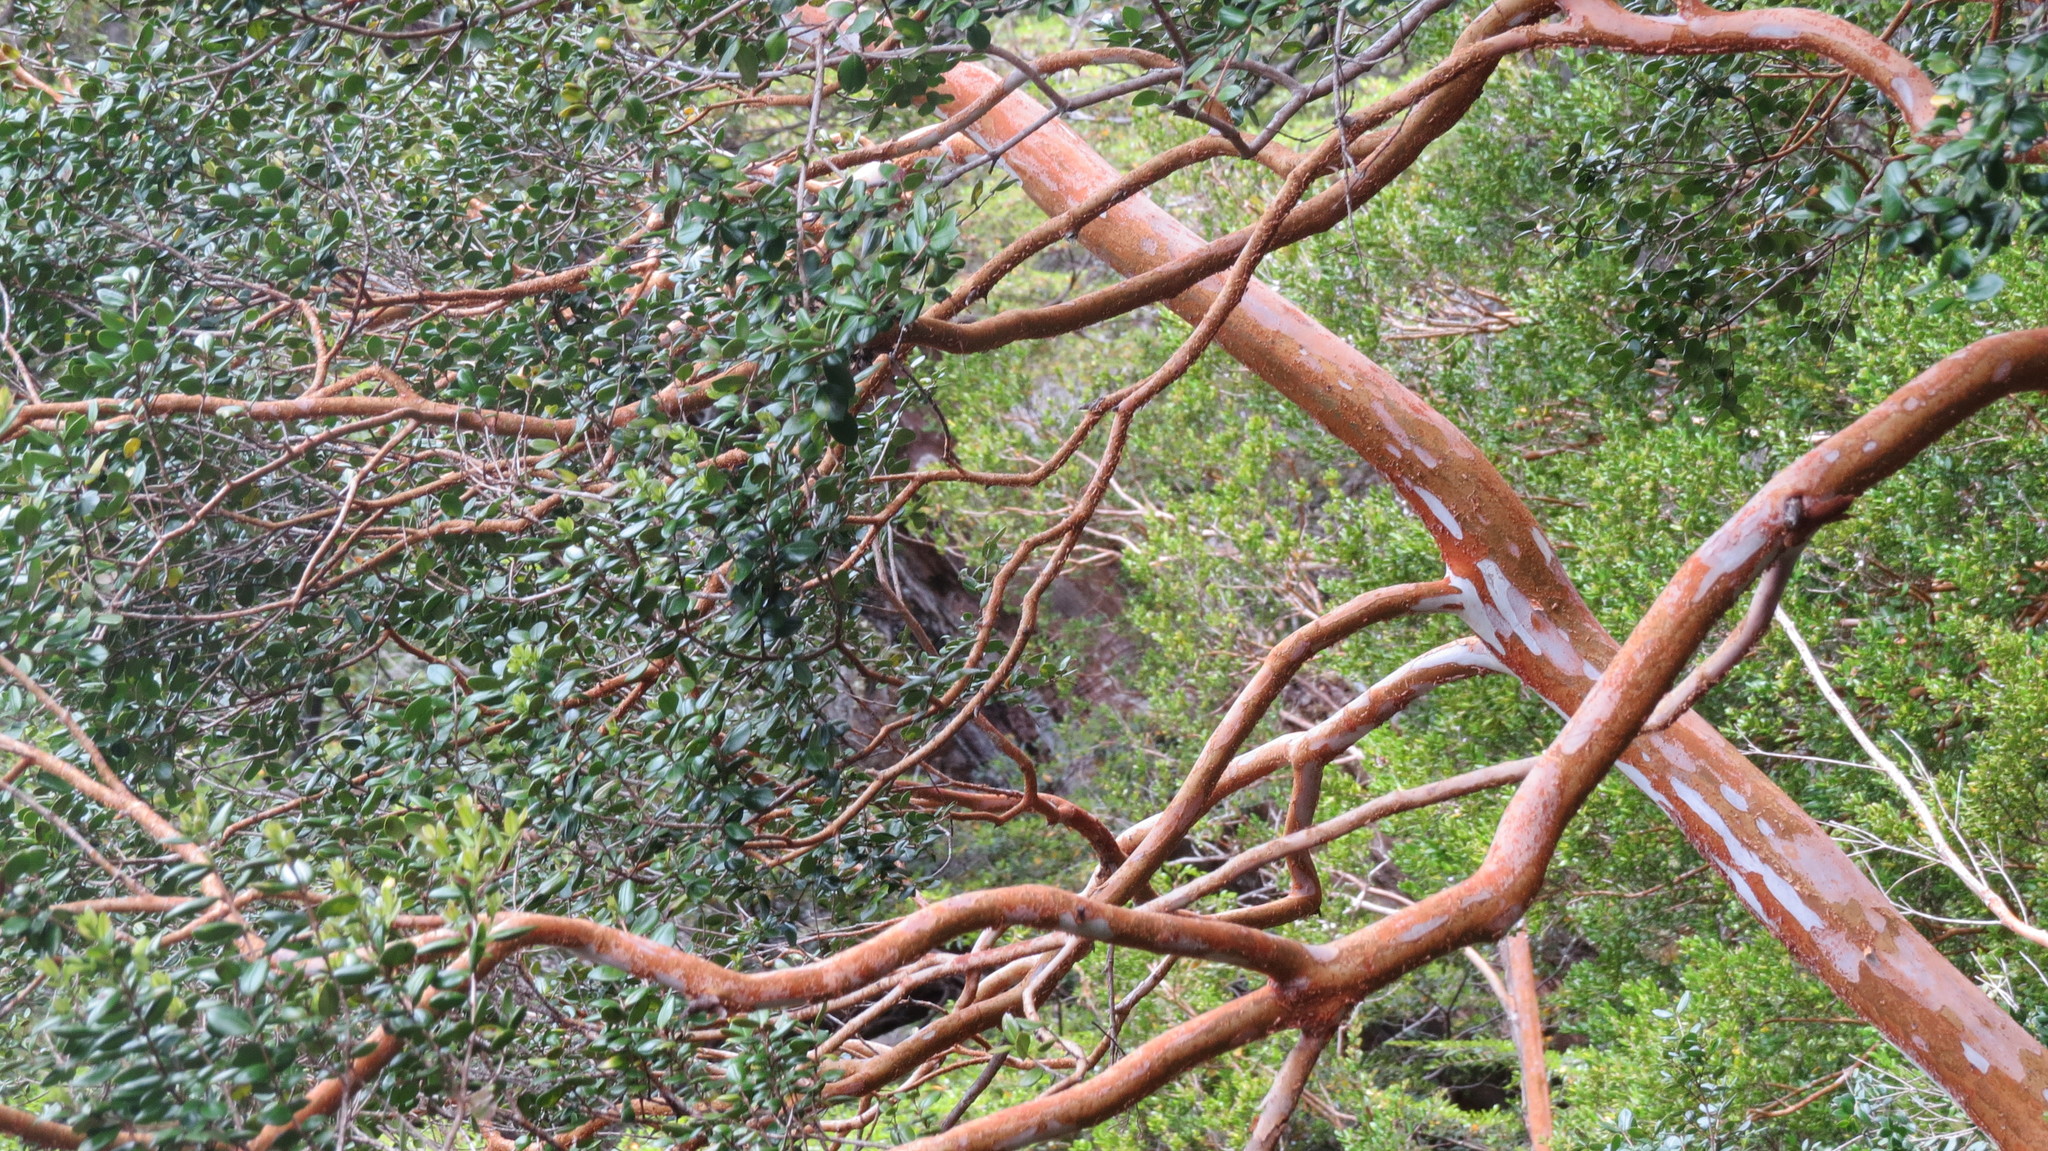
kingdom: Plantae
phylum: Tracheophyta
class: Magnoliopsida
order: Myrtales
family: Myrtaceae
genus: Luma
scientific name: Luma apiculata
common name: Chilean myrtle
